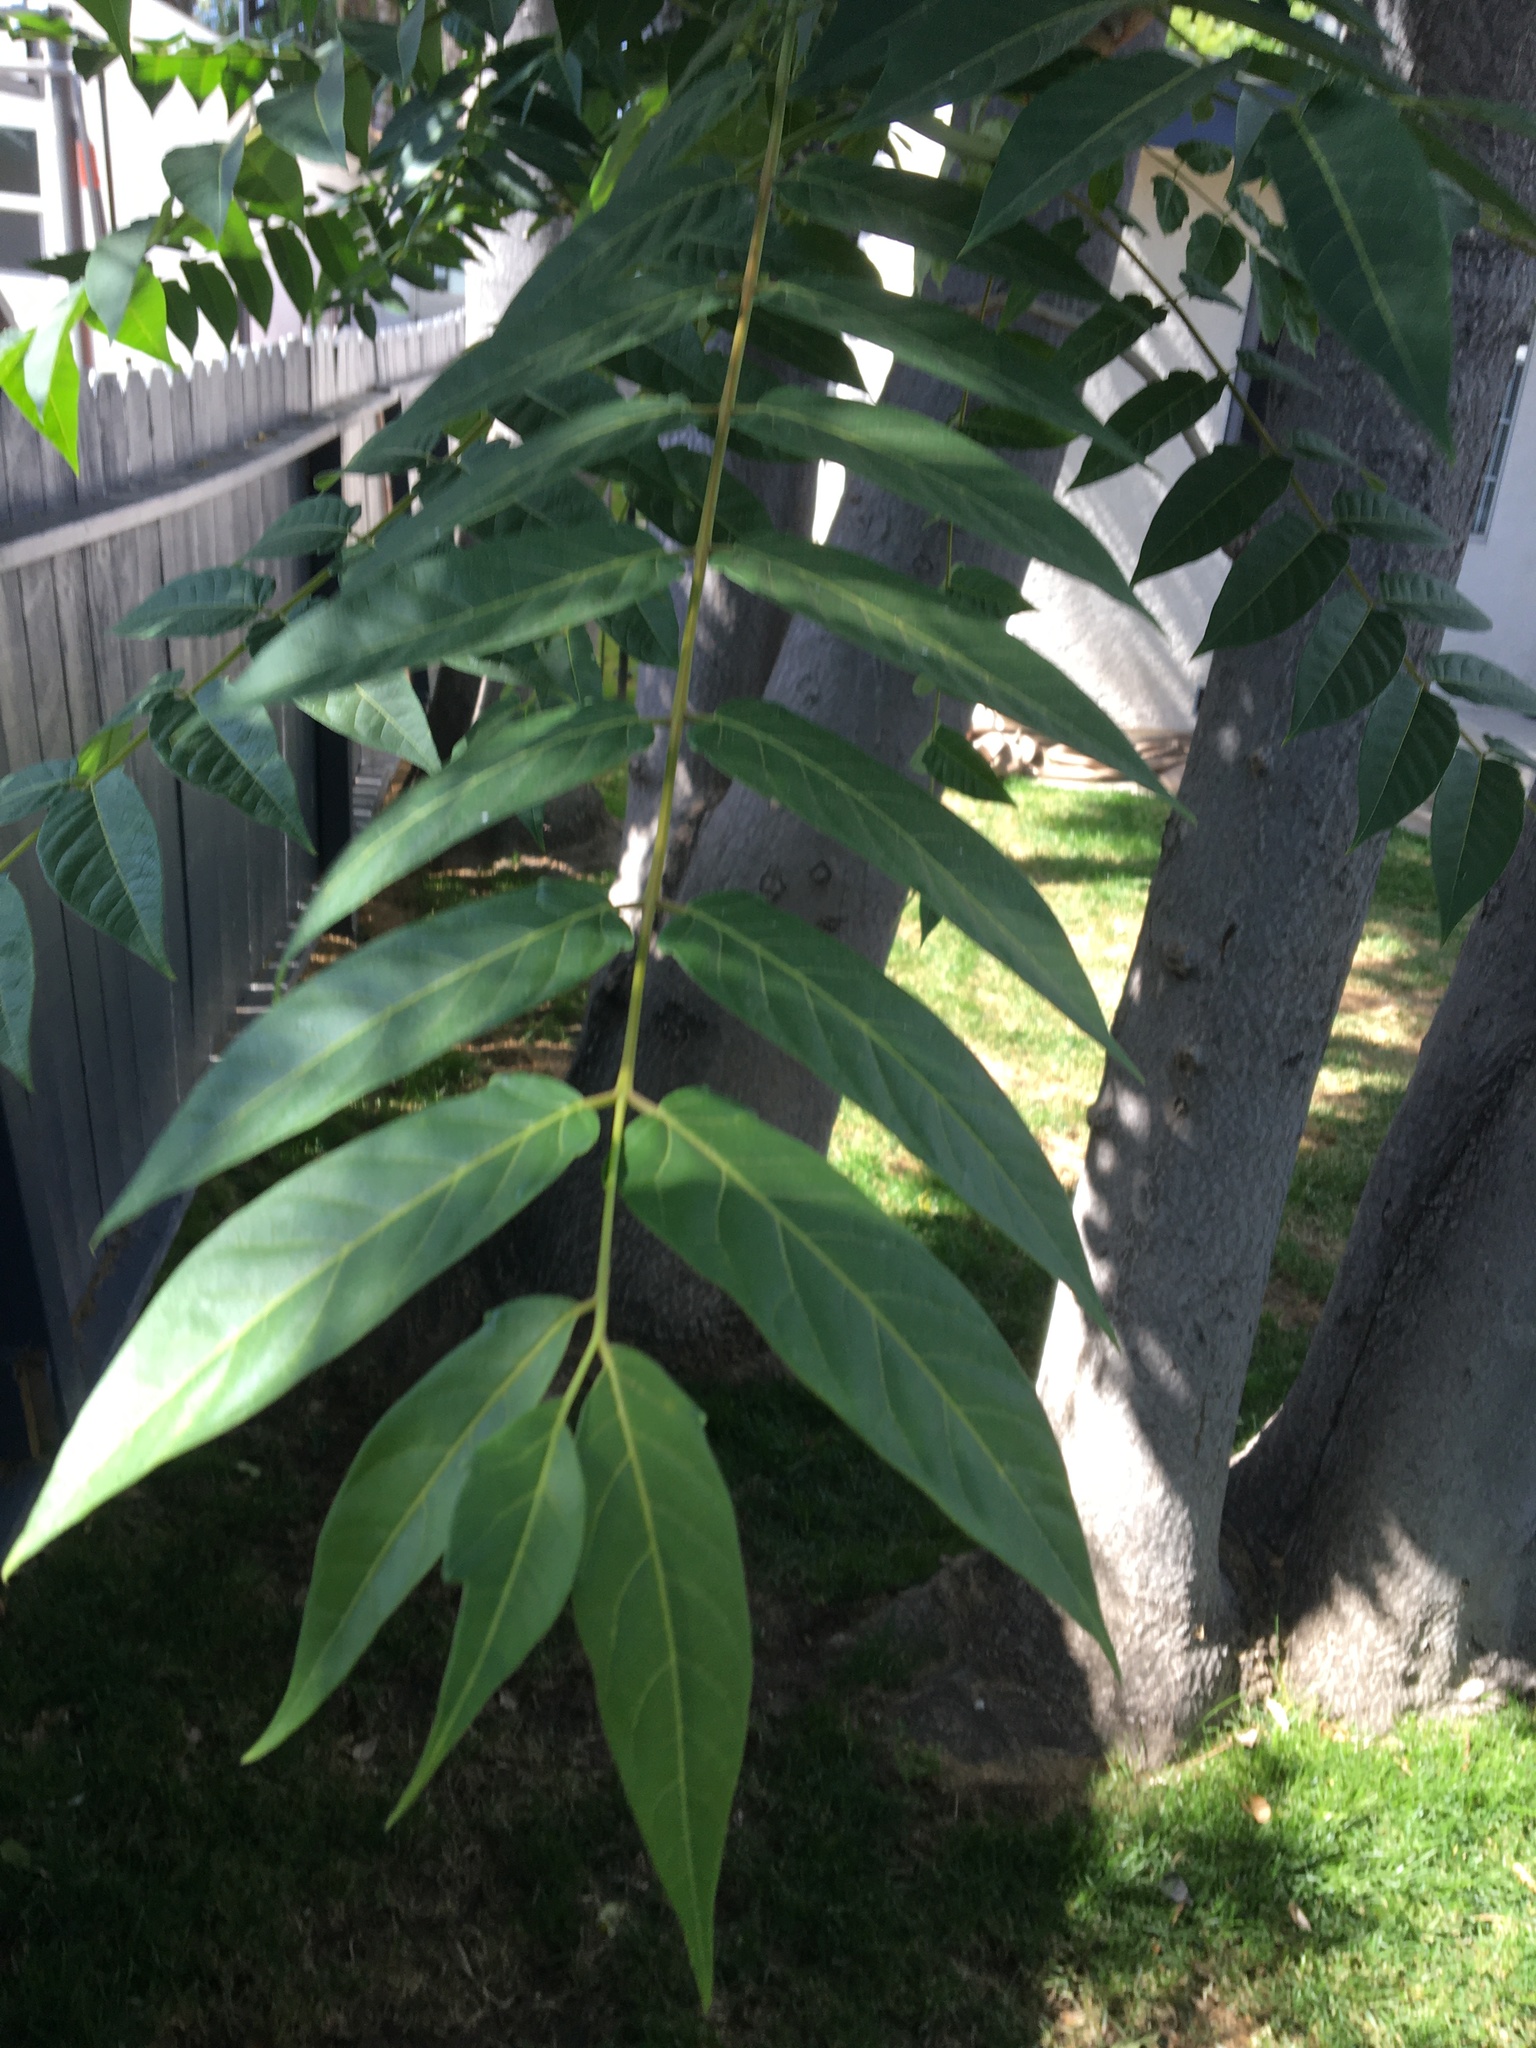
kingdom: Plantae
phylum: Tracheophyta
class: Magnoliopsida
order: Sapindales
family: Simaroubaceae
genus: Ailanthus
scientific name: Ailanthus altissima
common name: Tree-of-heaven
